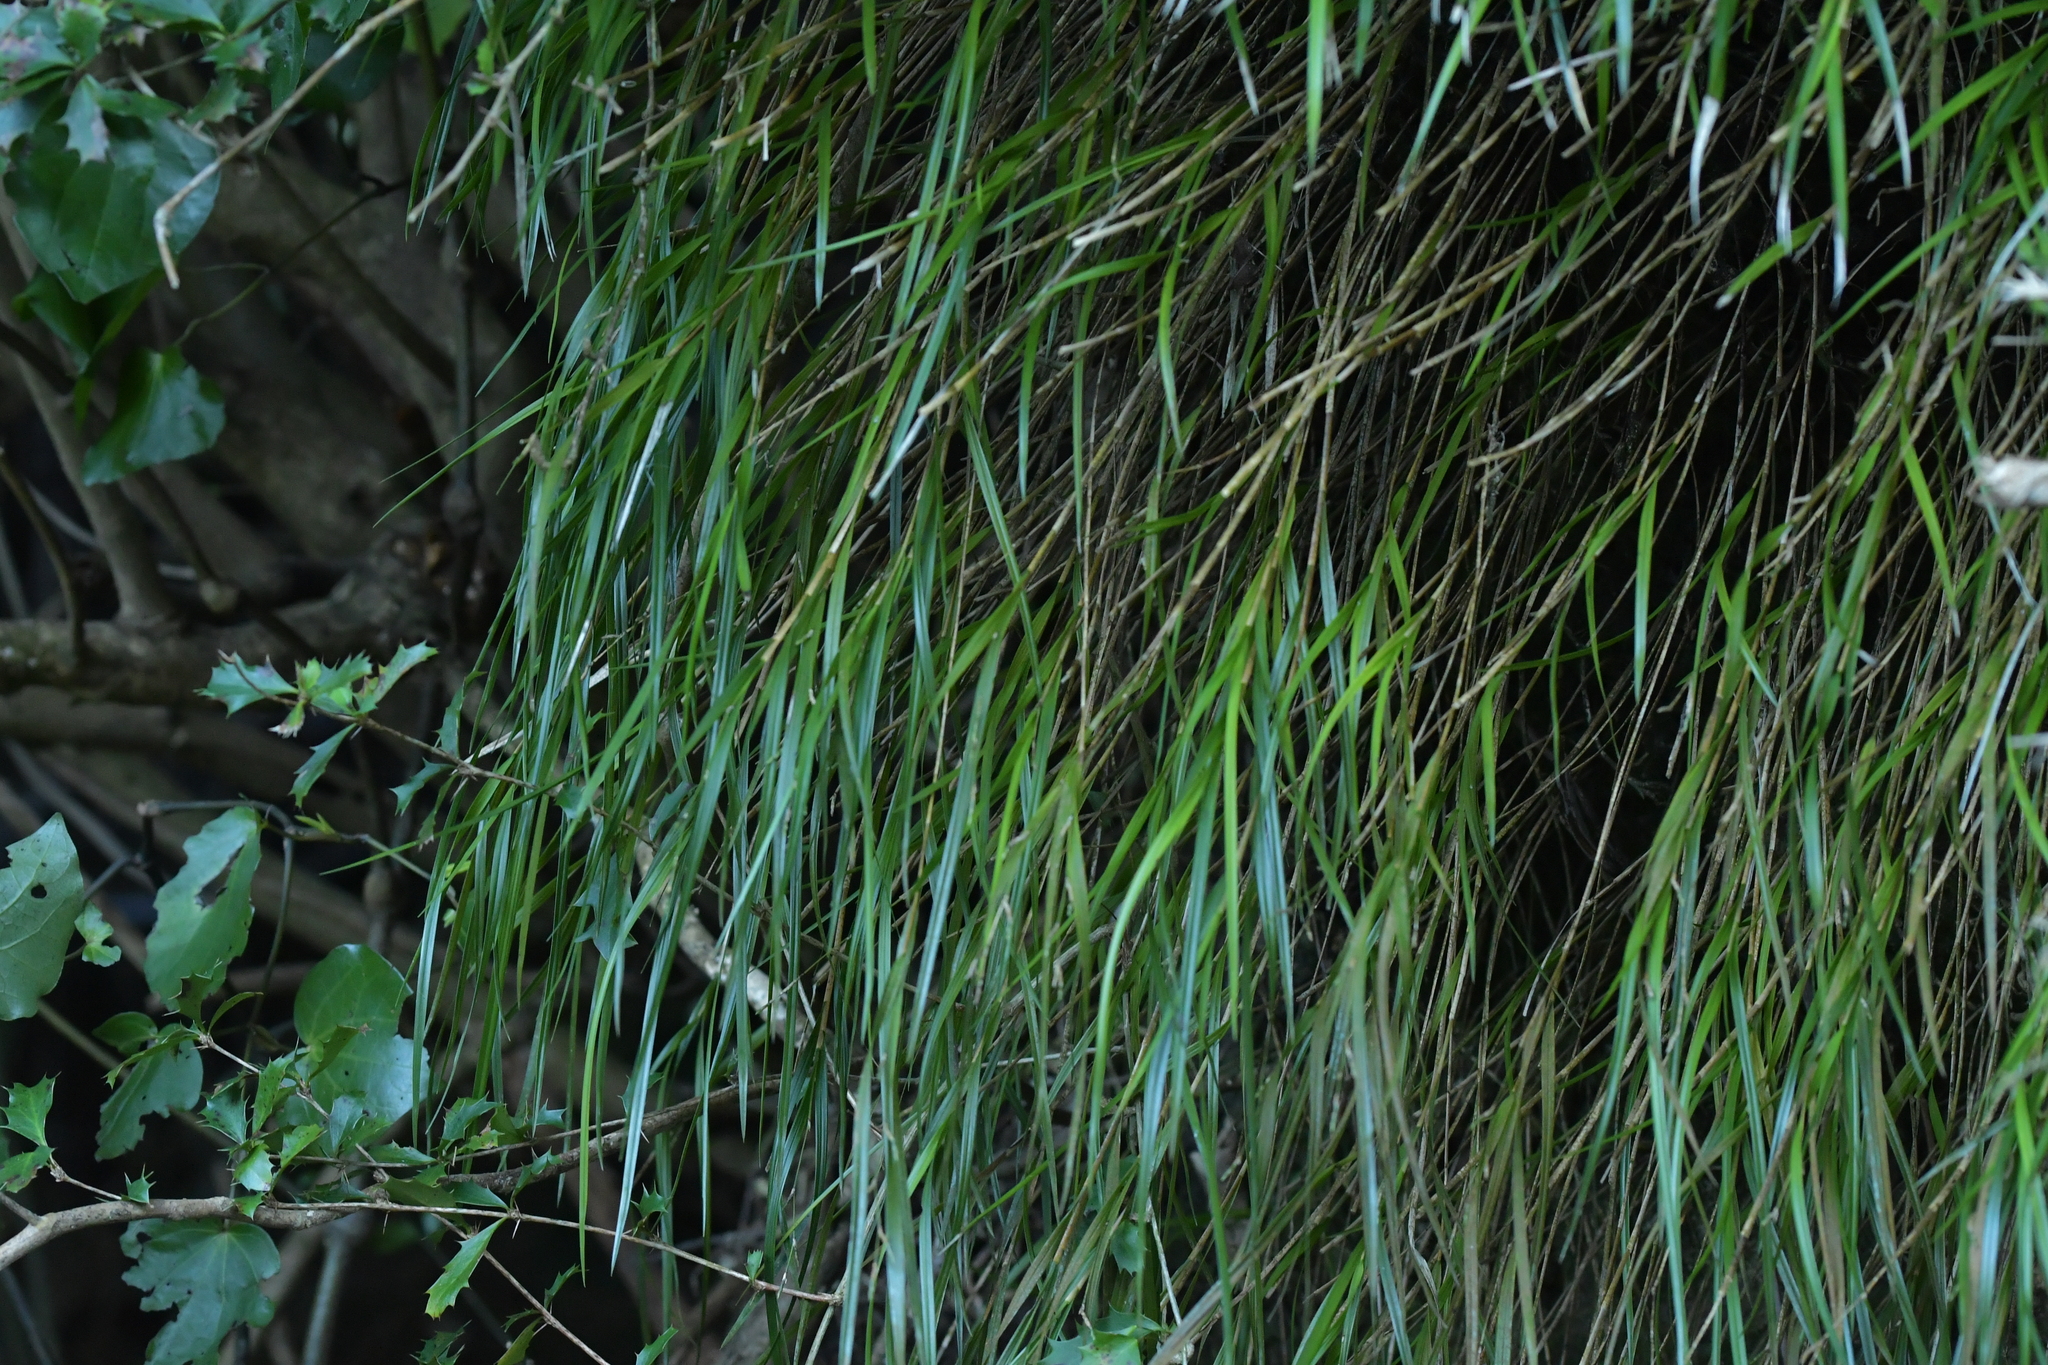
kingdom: Plantae
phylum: Tracheophyta
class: Liliopsida
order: Asparagales
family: Orchidaceae
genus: Earina
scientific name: Earina mucronata
